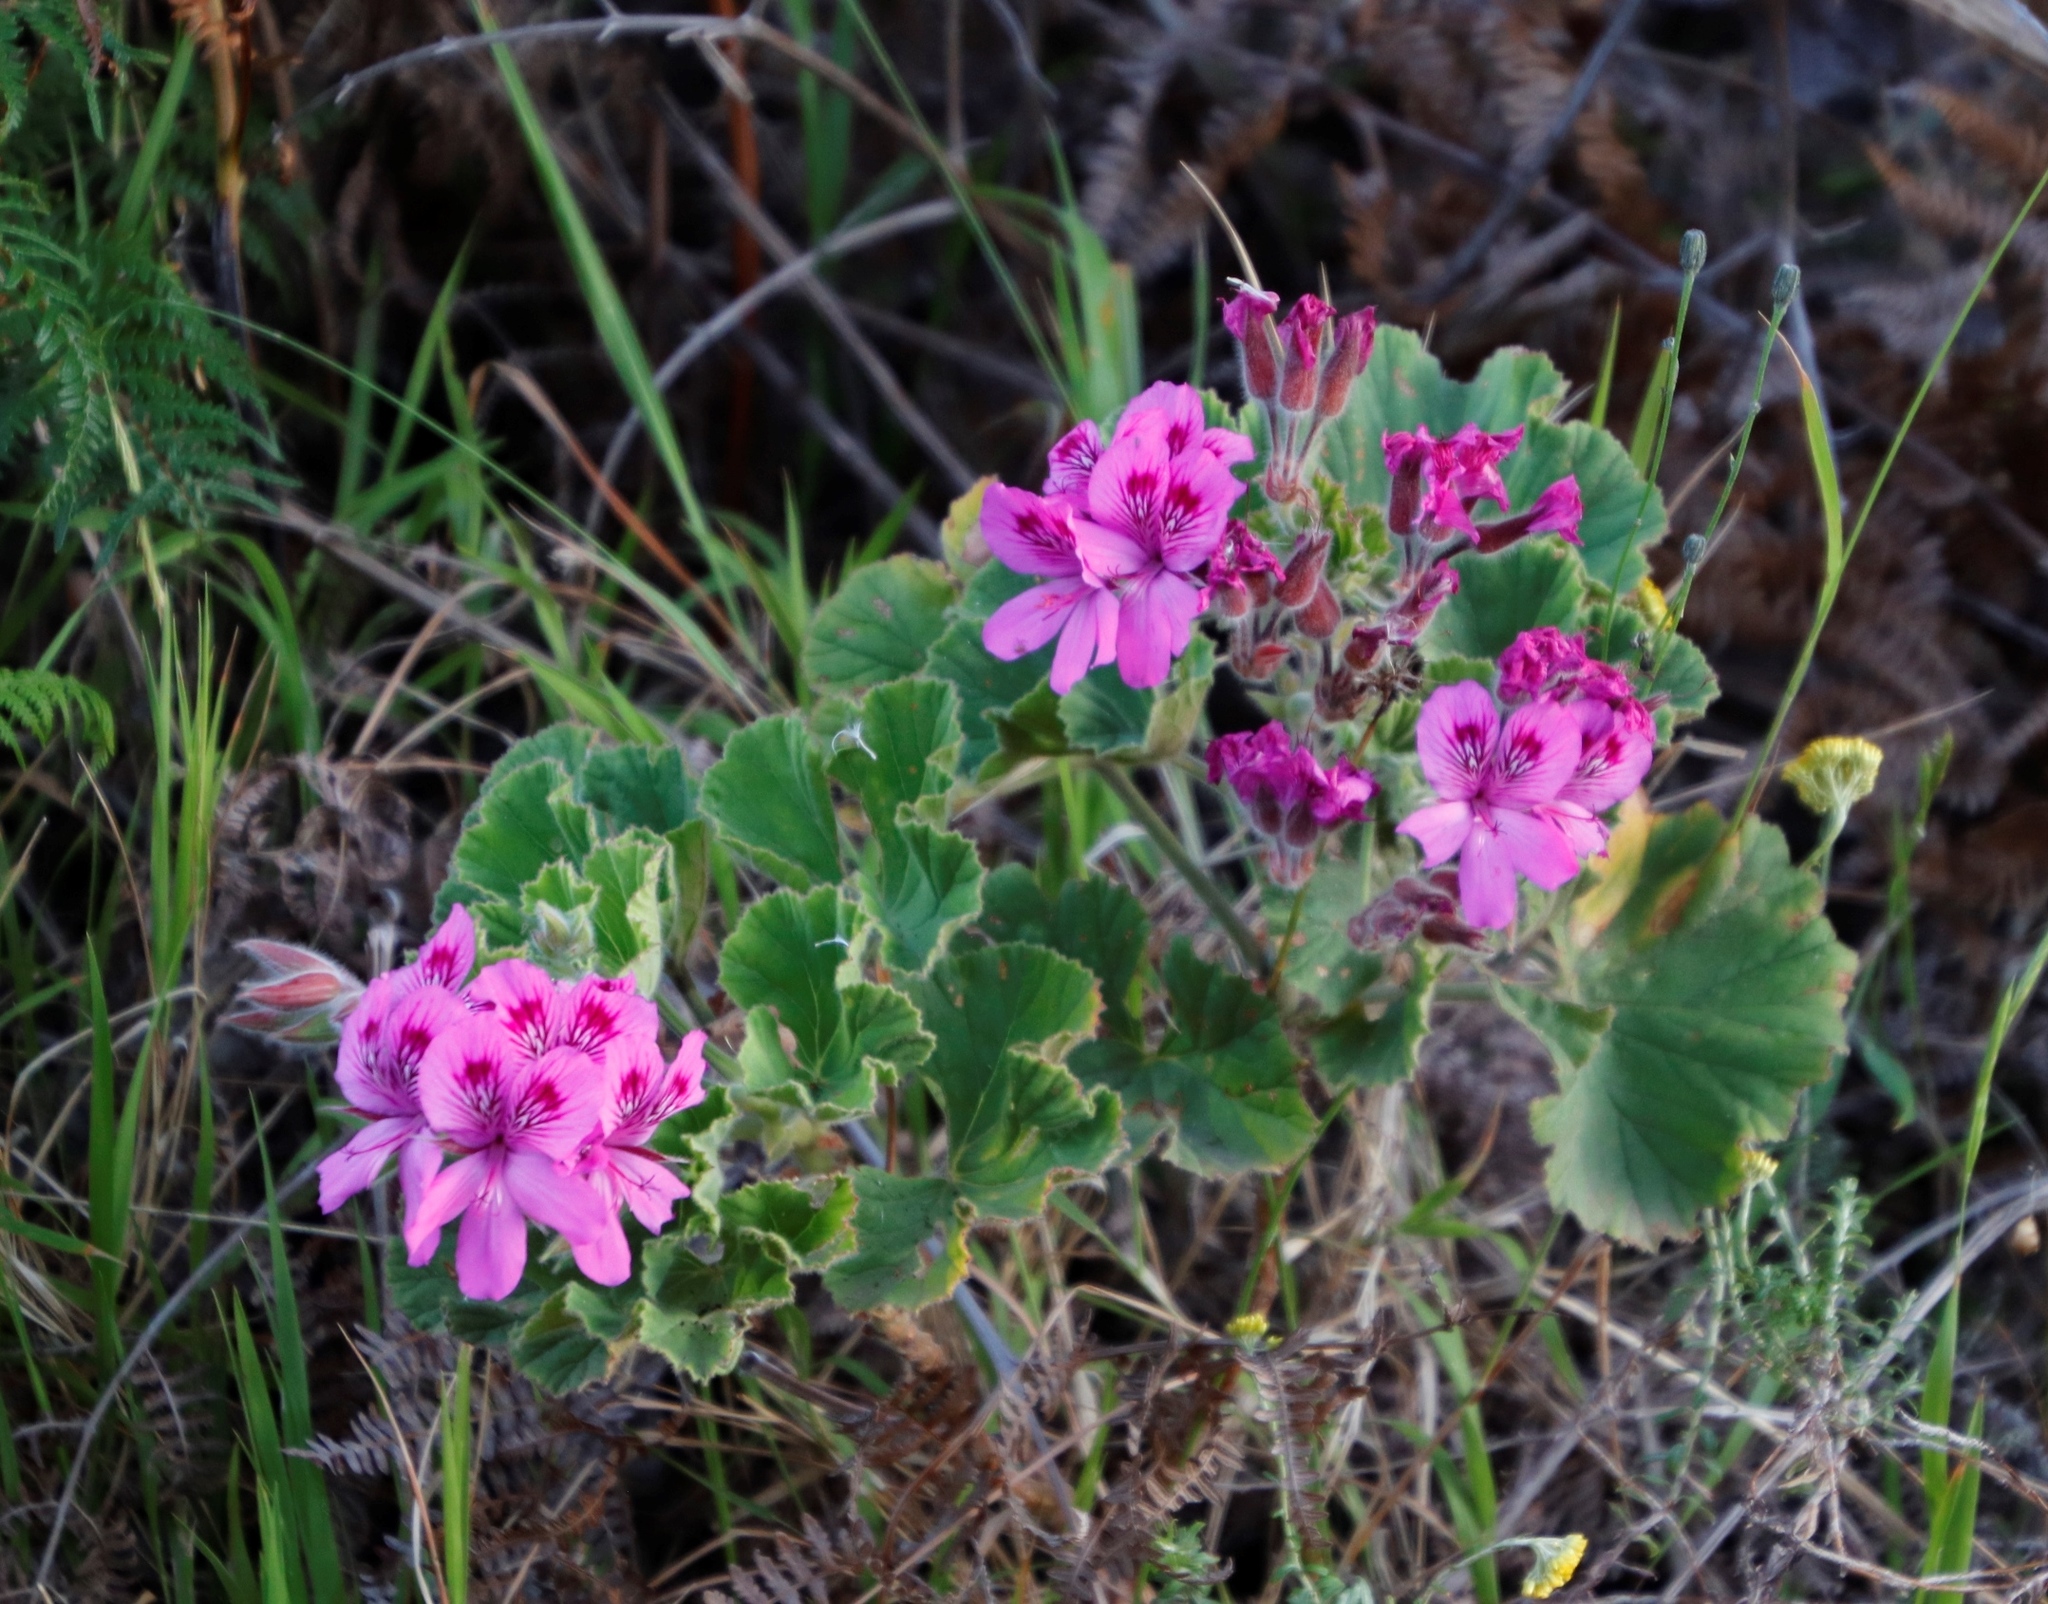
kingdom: Plantae
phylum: Tracheophyta
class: Magnoliopsida
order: Geraniales
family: Geraniaceae
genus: Pelargonium
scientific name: Pelargonium cucullatum
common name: Tree pelargonium
